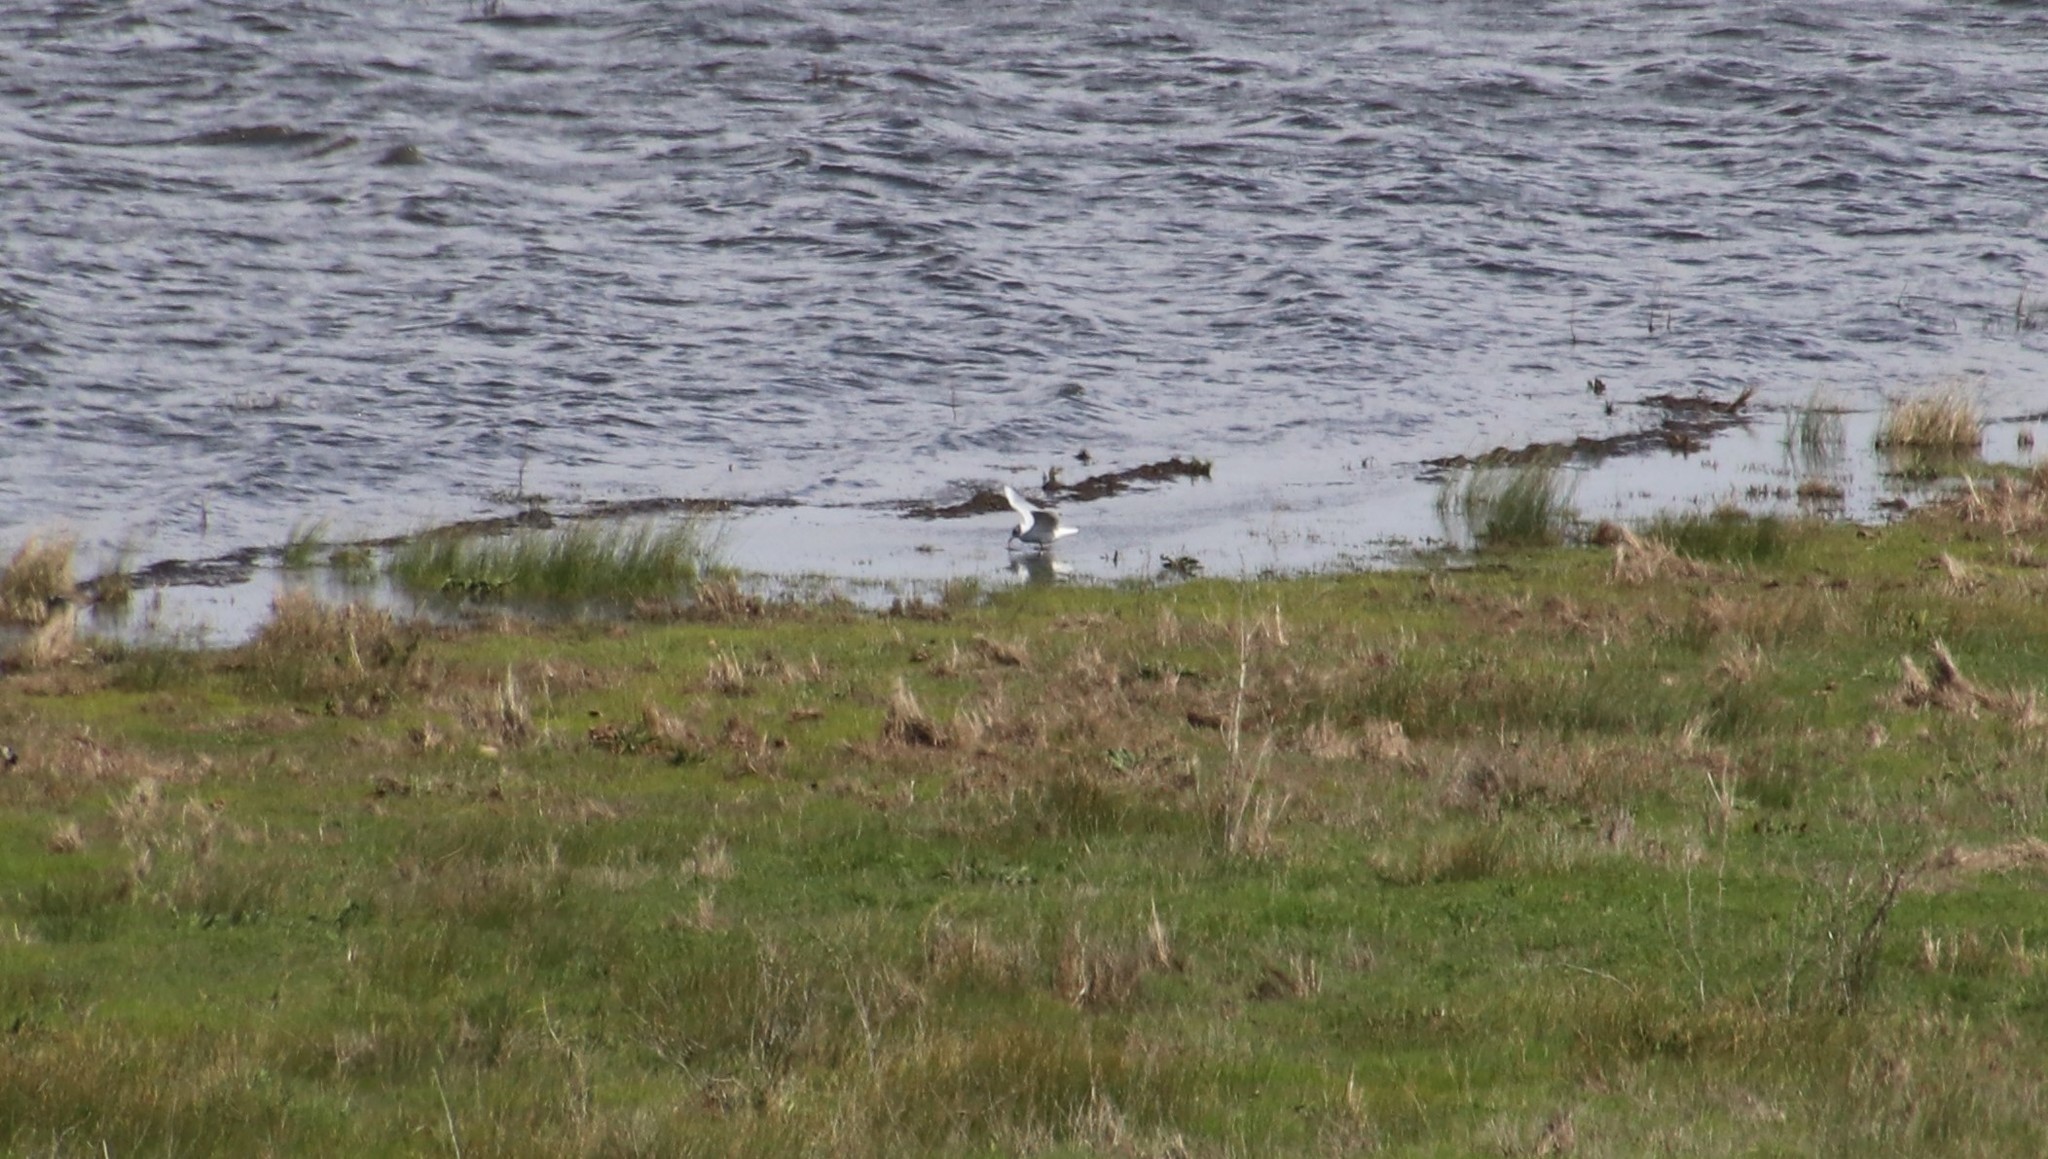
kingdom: Animalia
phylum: Chordata
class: Aves
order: Charadriiformes
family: Laridae
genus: Chroicocephalus
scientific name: Chroicocephalus philadelphia
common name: Bonaparte's gull
